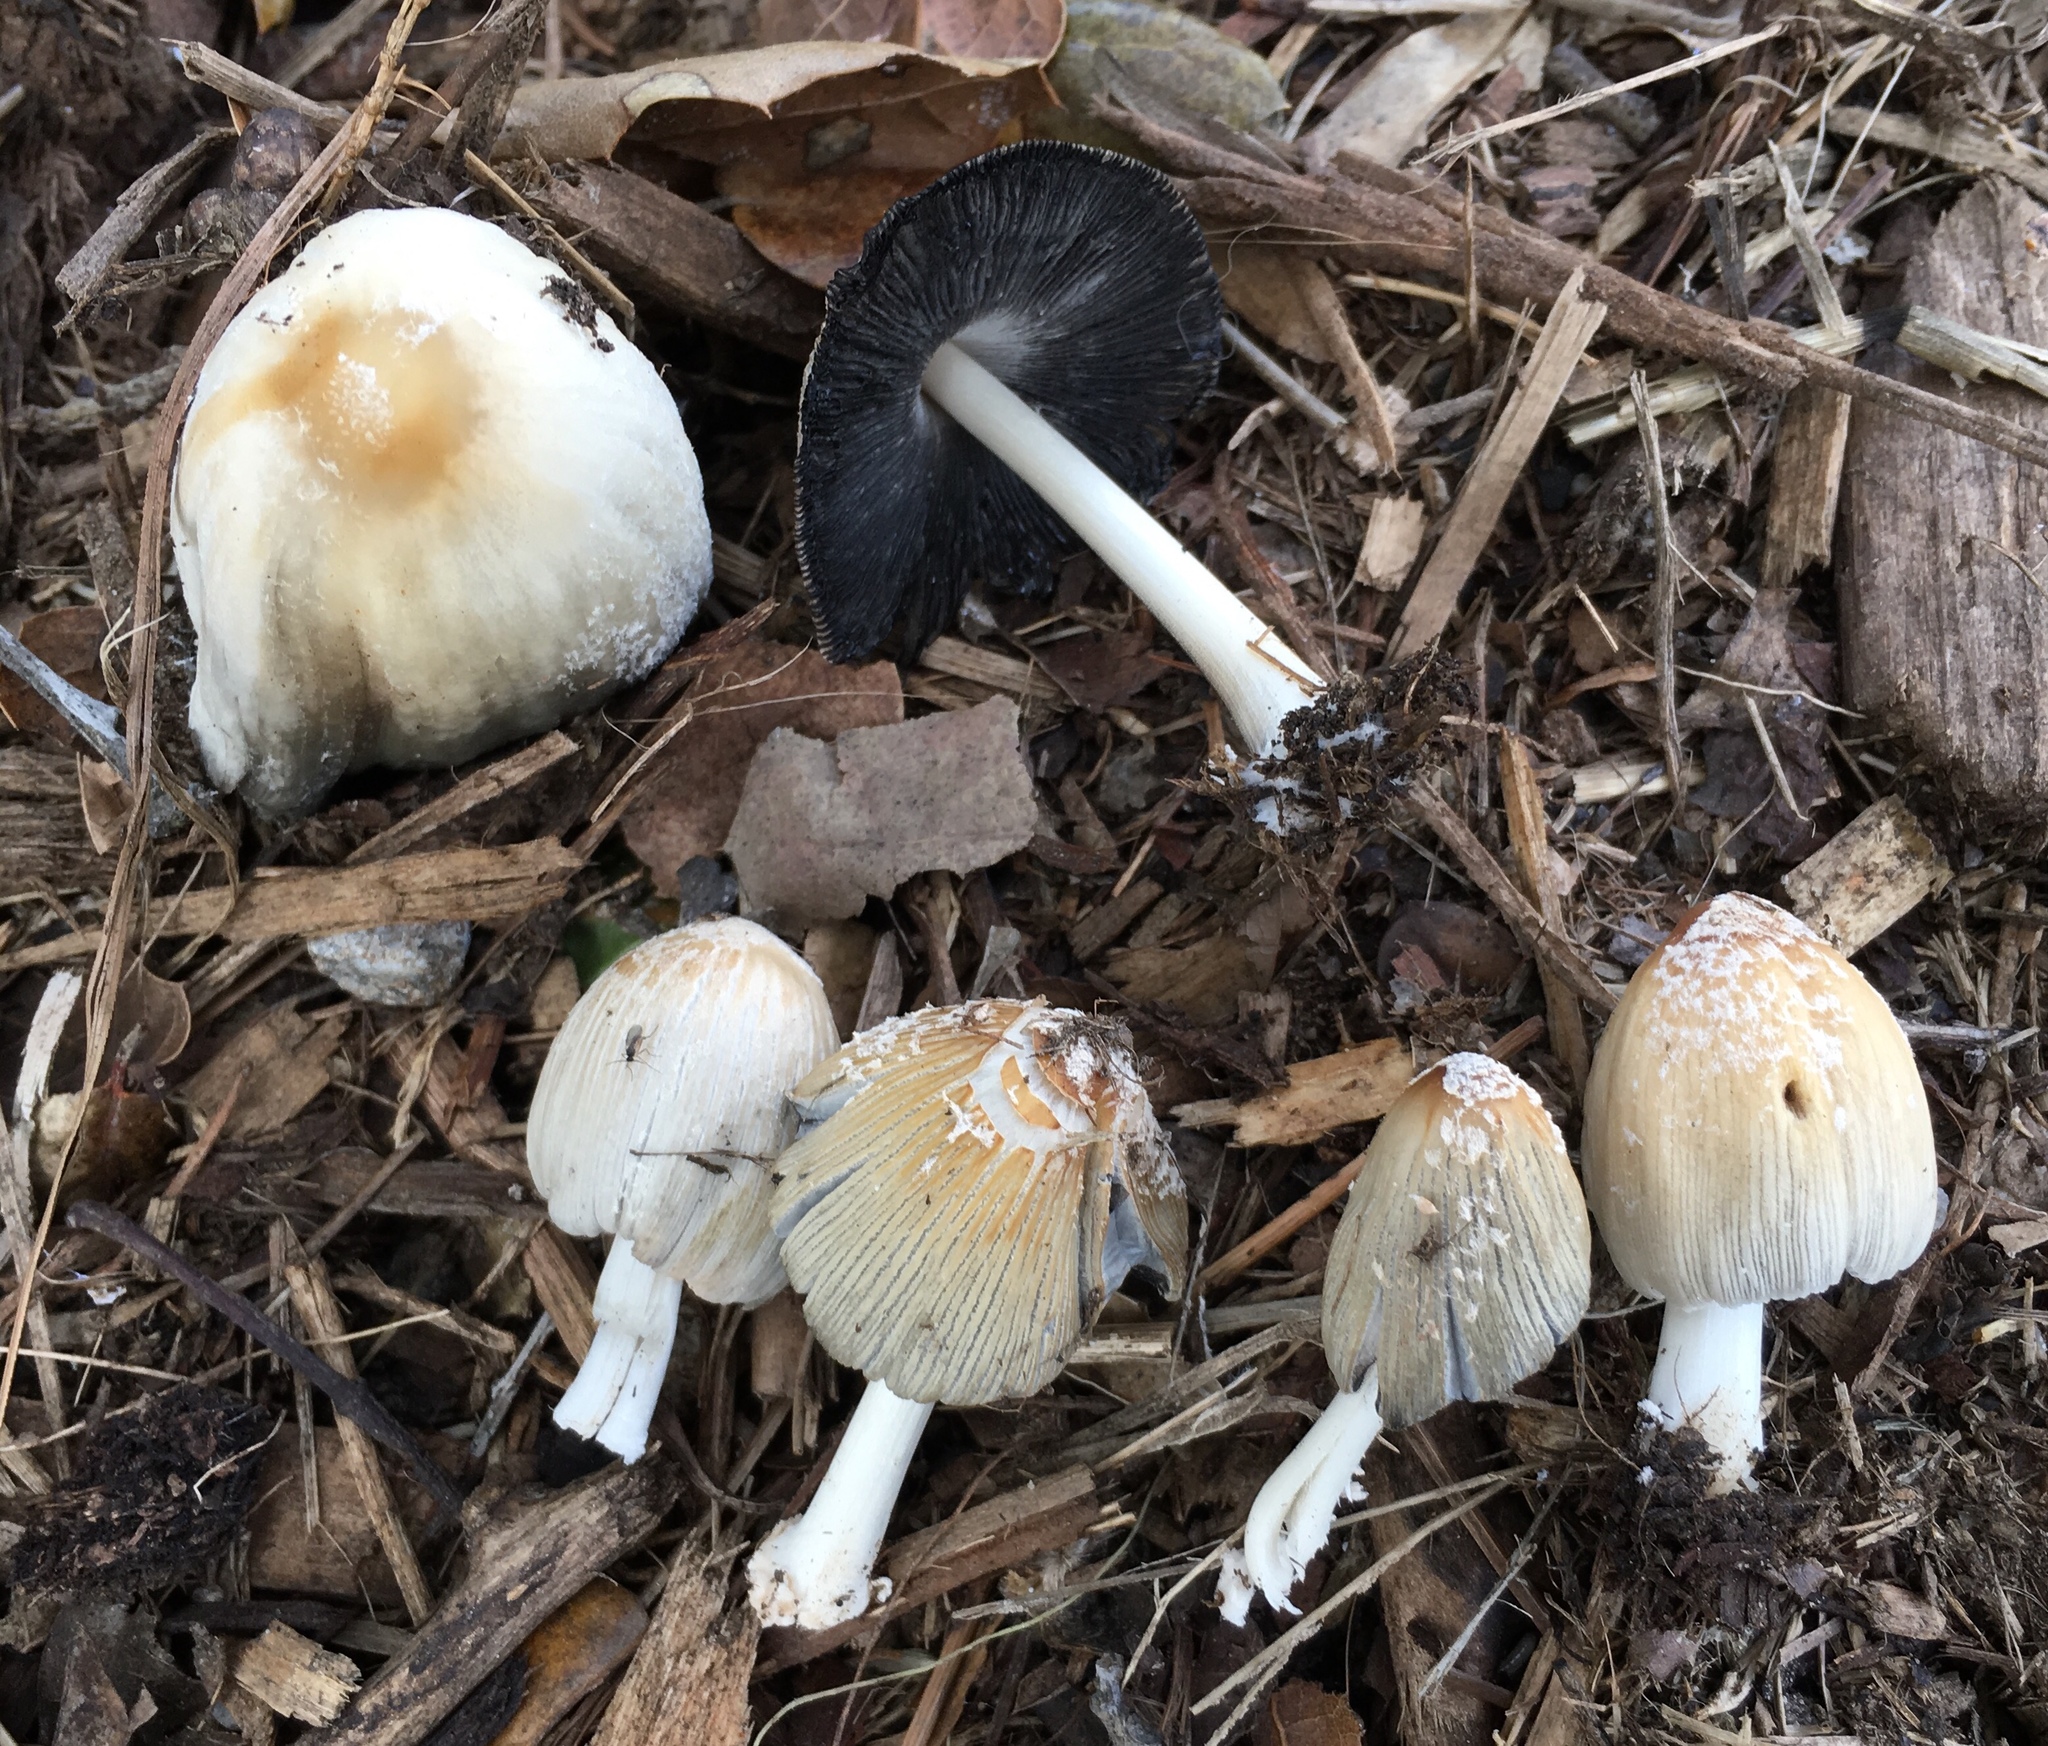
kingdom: Fungi
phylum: Basidiomycota
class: Agaricomycetes
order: Agaricales
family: Psathyrellaceae
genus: Coprinellus
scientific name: Coprinellus flocculosus
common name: Flocculose inkcap
